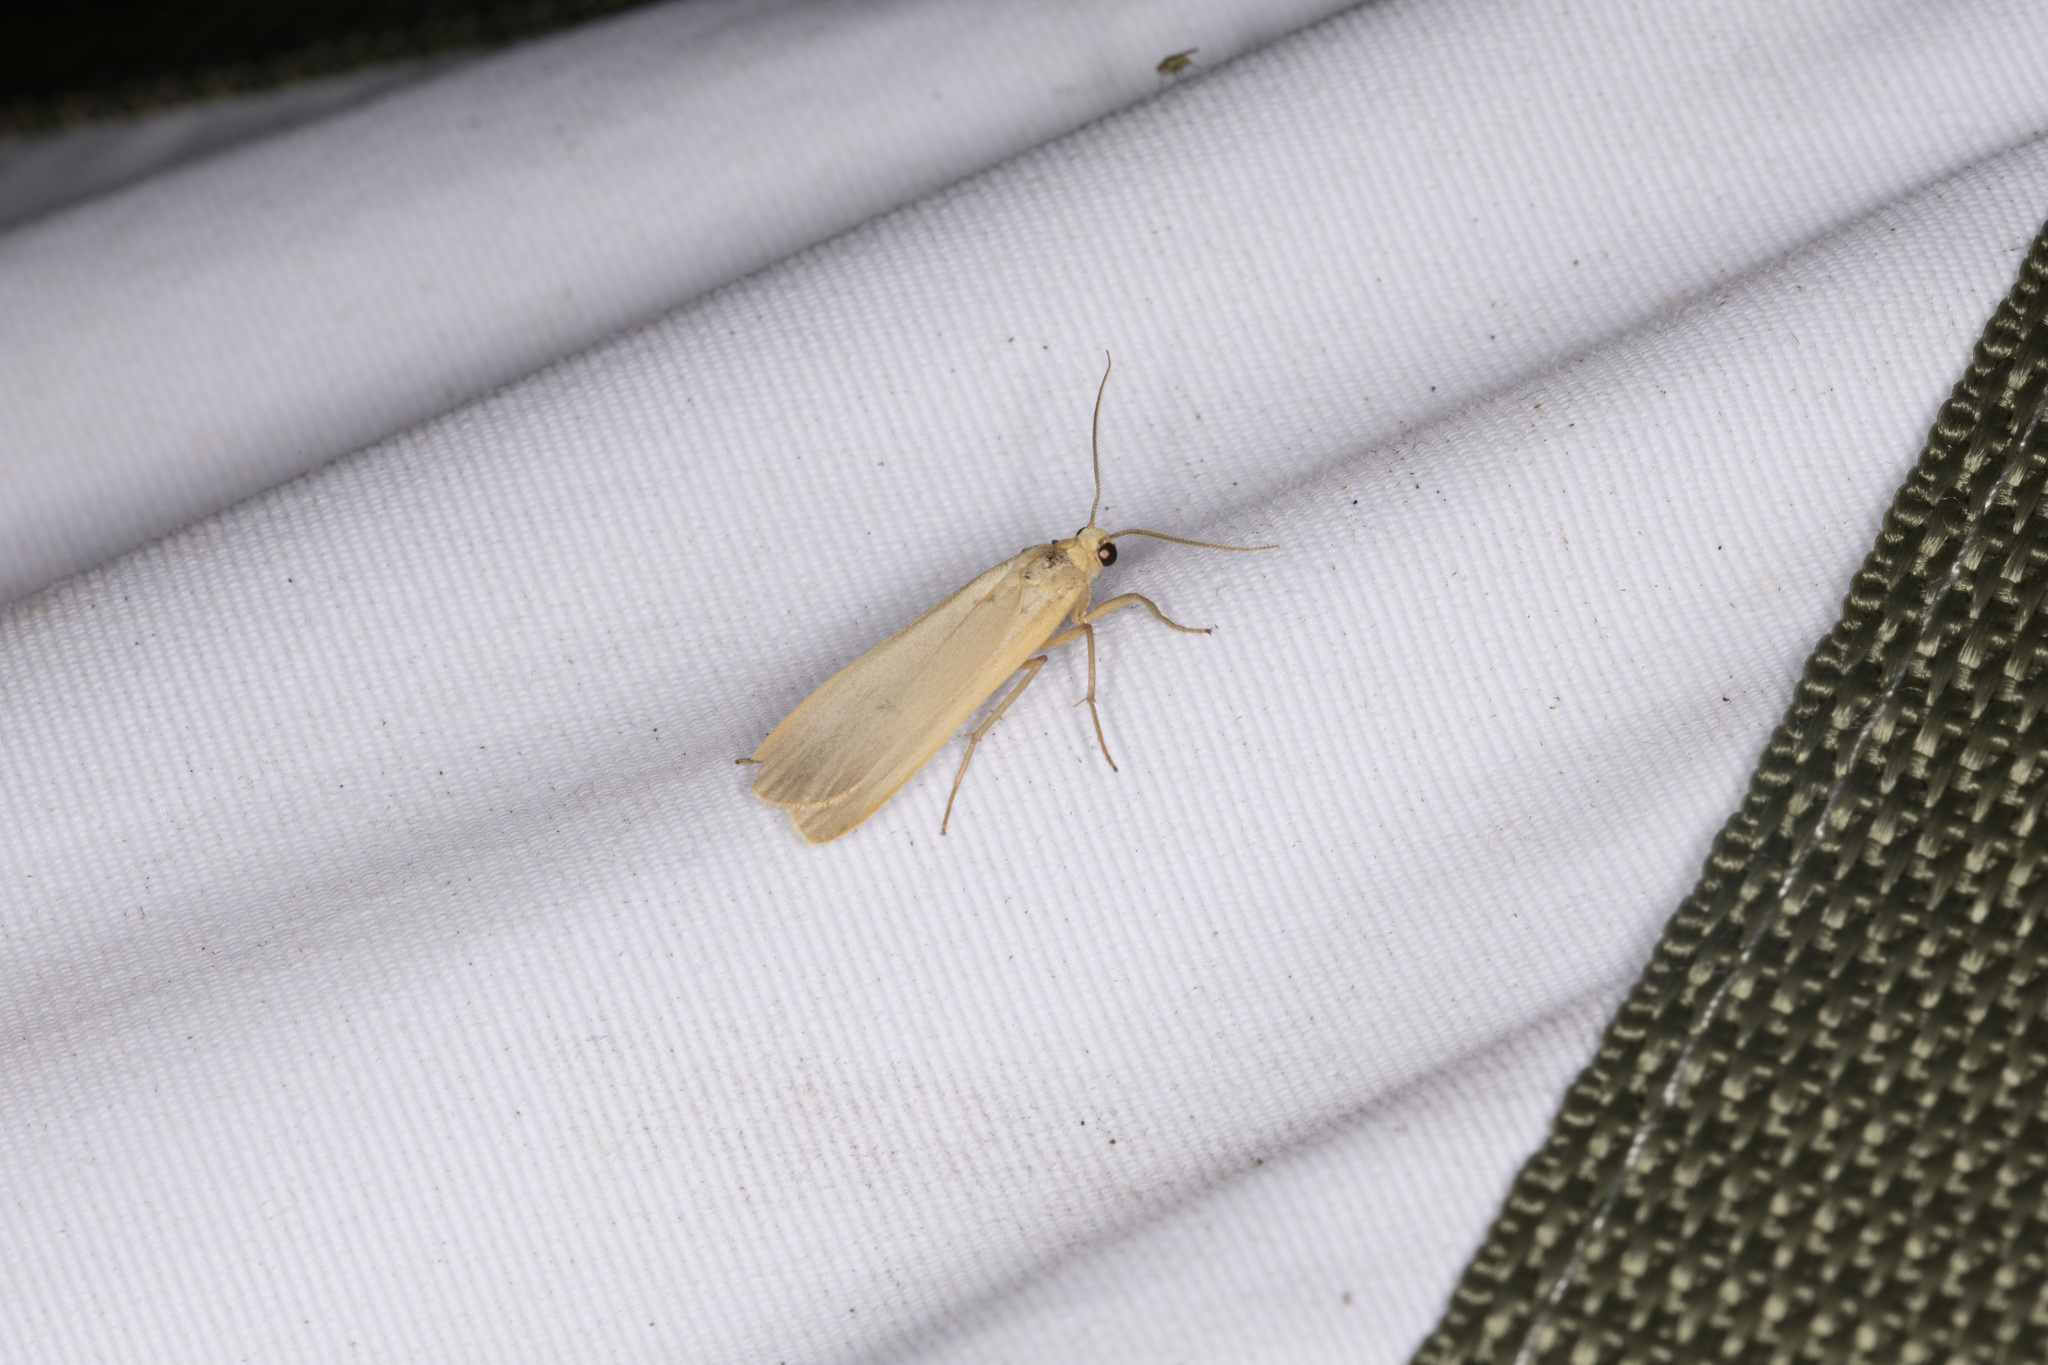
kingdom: Animalia
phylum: Arthropoda
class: Insecta
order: Lepidoptera
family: Erebidae
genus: Katha
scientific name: Katha depressa
